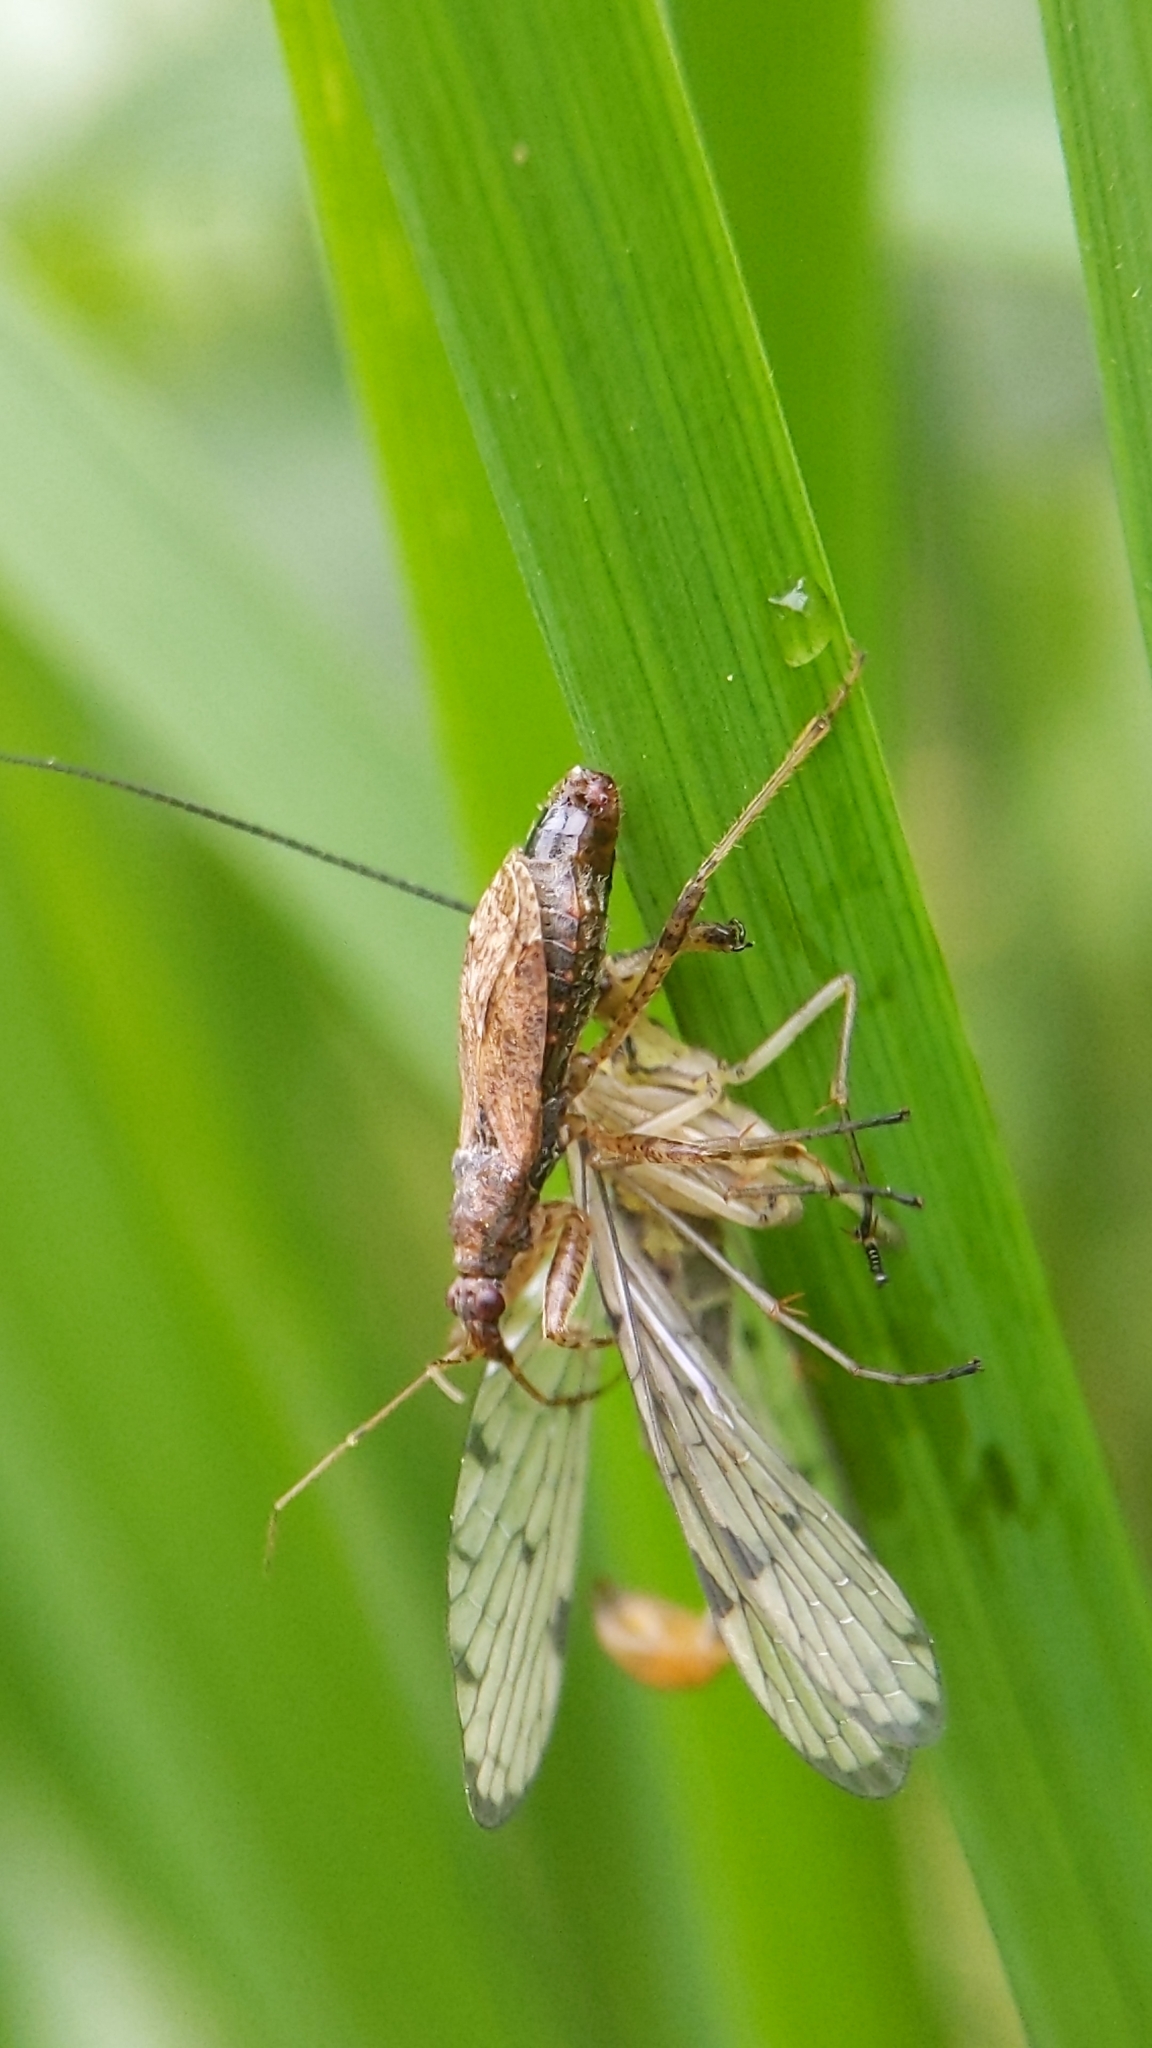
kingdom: Animalia
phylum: Arthropoda
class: Insecta
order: Hemiptera
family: Nabidae
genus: Himacerus
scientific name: Himacerus mirmicoides
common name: Ant damsel bug
